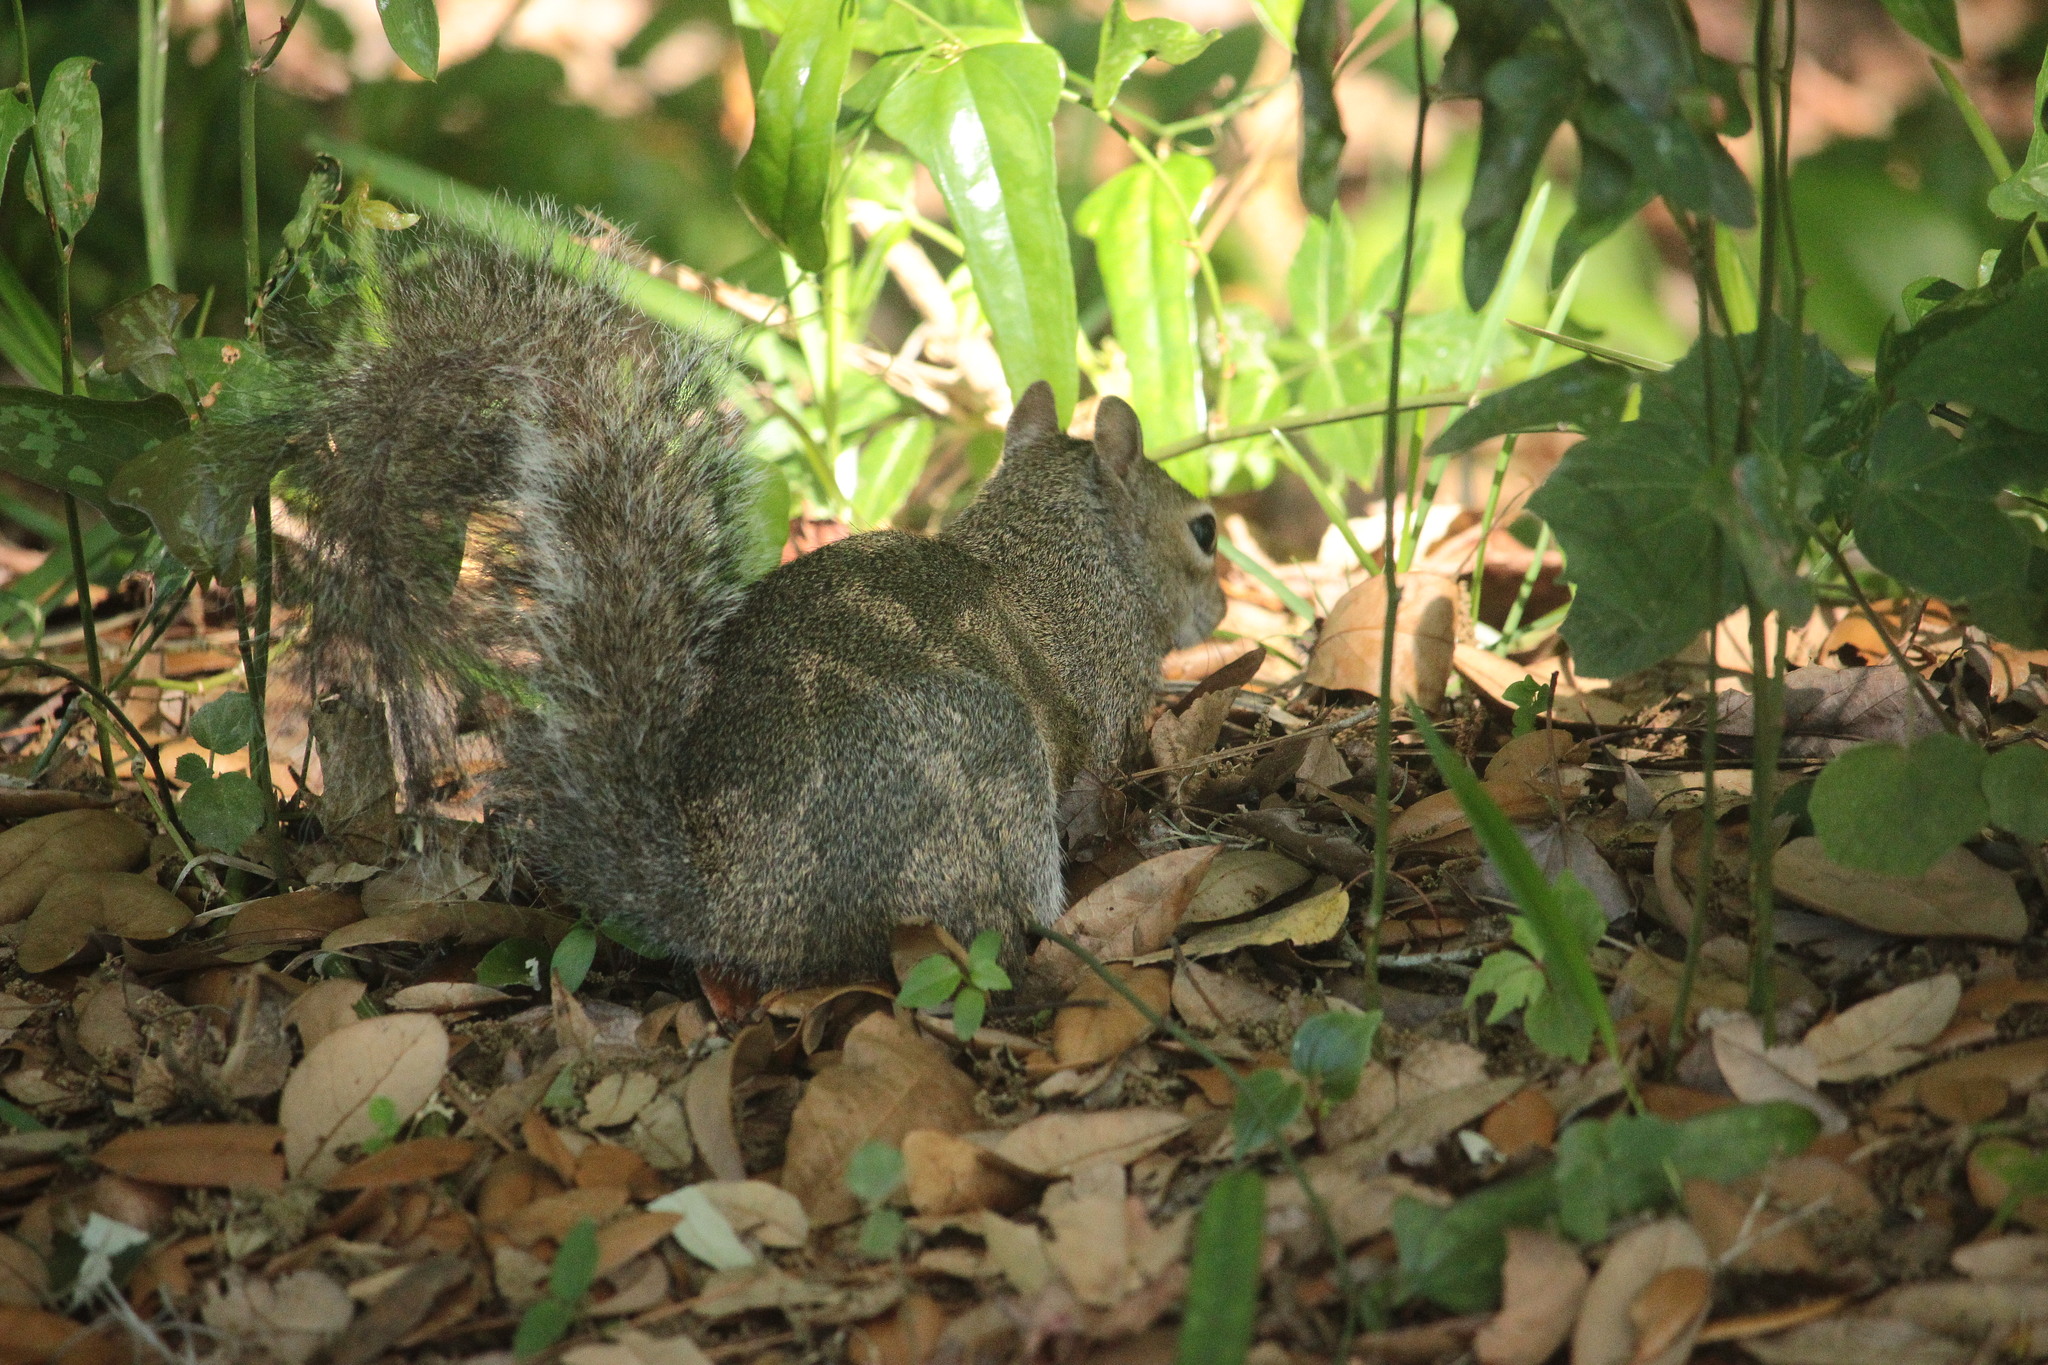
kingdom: Animalia
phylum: Chordata
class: Mammalia
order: Rodentia
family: Sciuridae
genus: Sciurus
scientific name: Sciurus carolinensis
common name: Eastern gray squirrel
